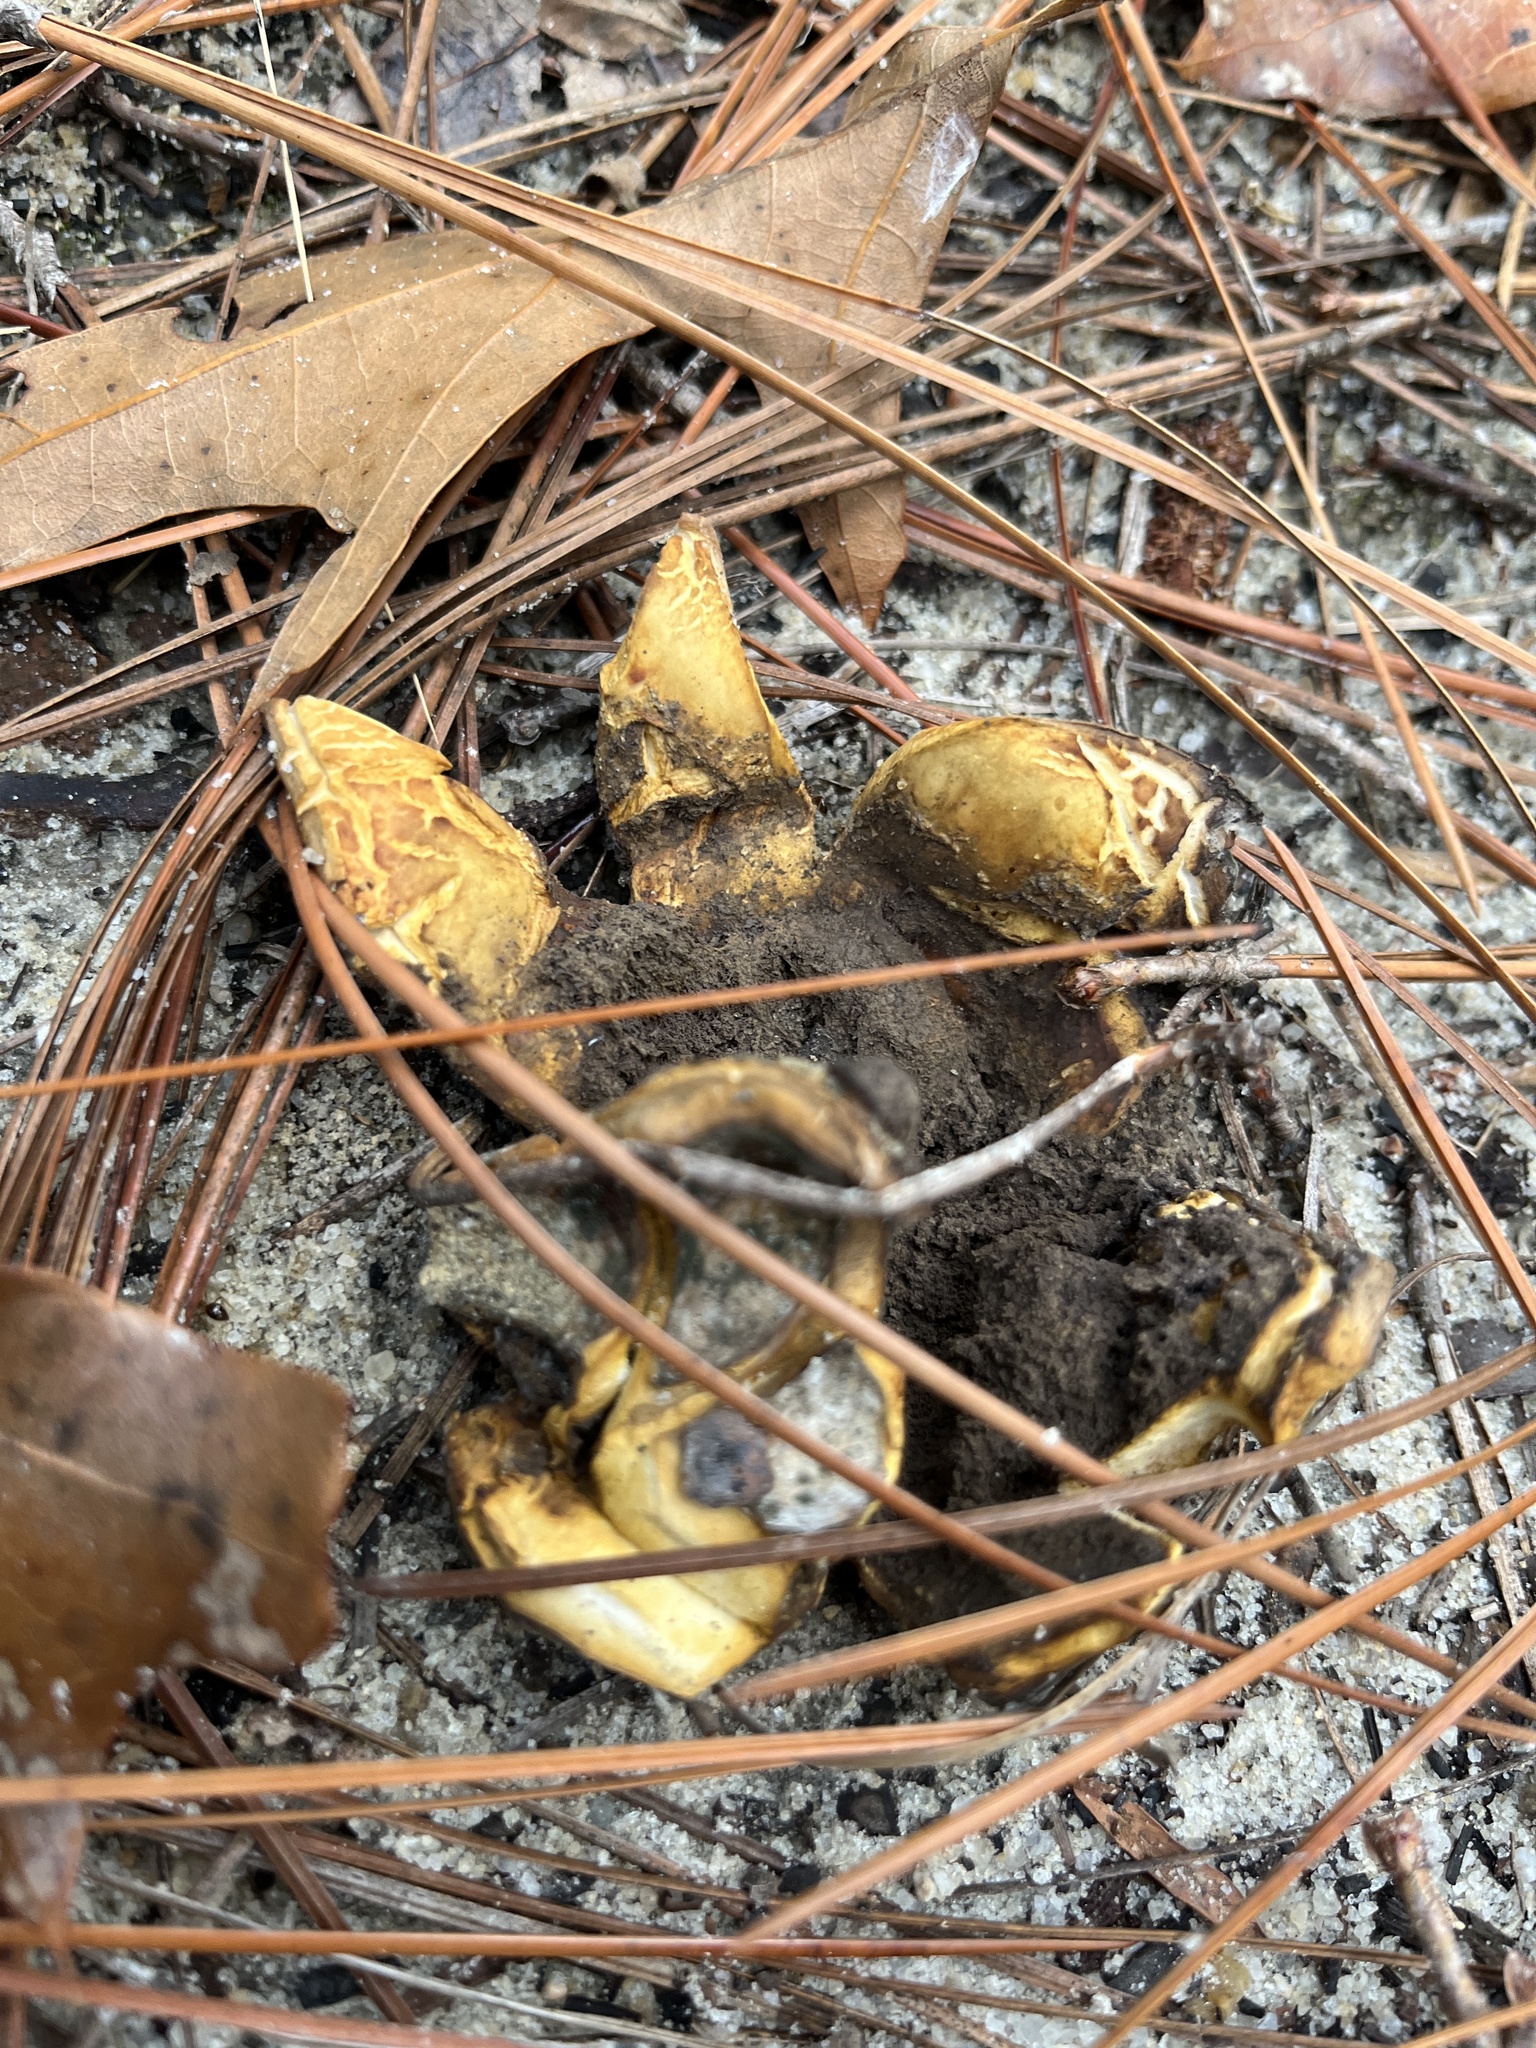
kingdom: Fungi
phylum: Basidiomycota
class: Agaricomycetes
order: Boletales
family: Sclerodermataceae
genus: Scleroderma
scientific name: Scleroderma polyrhizum
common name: Many-rooted earthball
